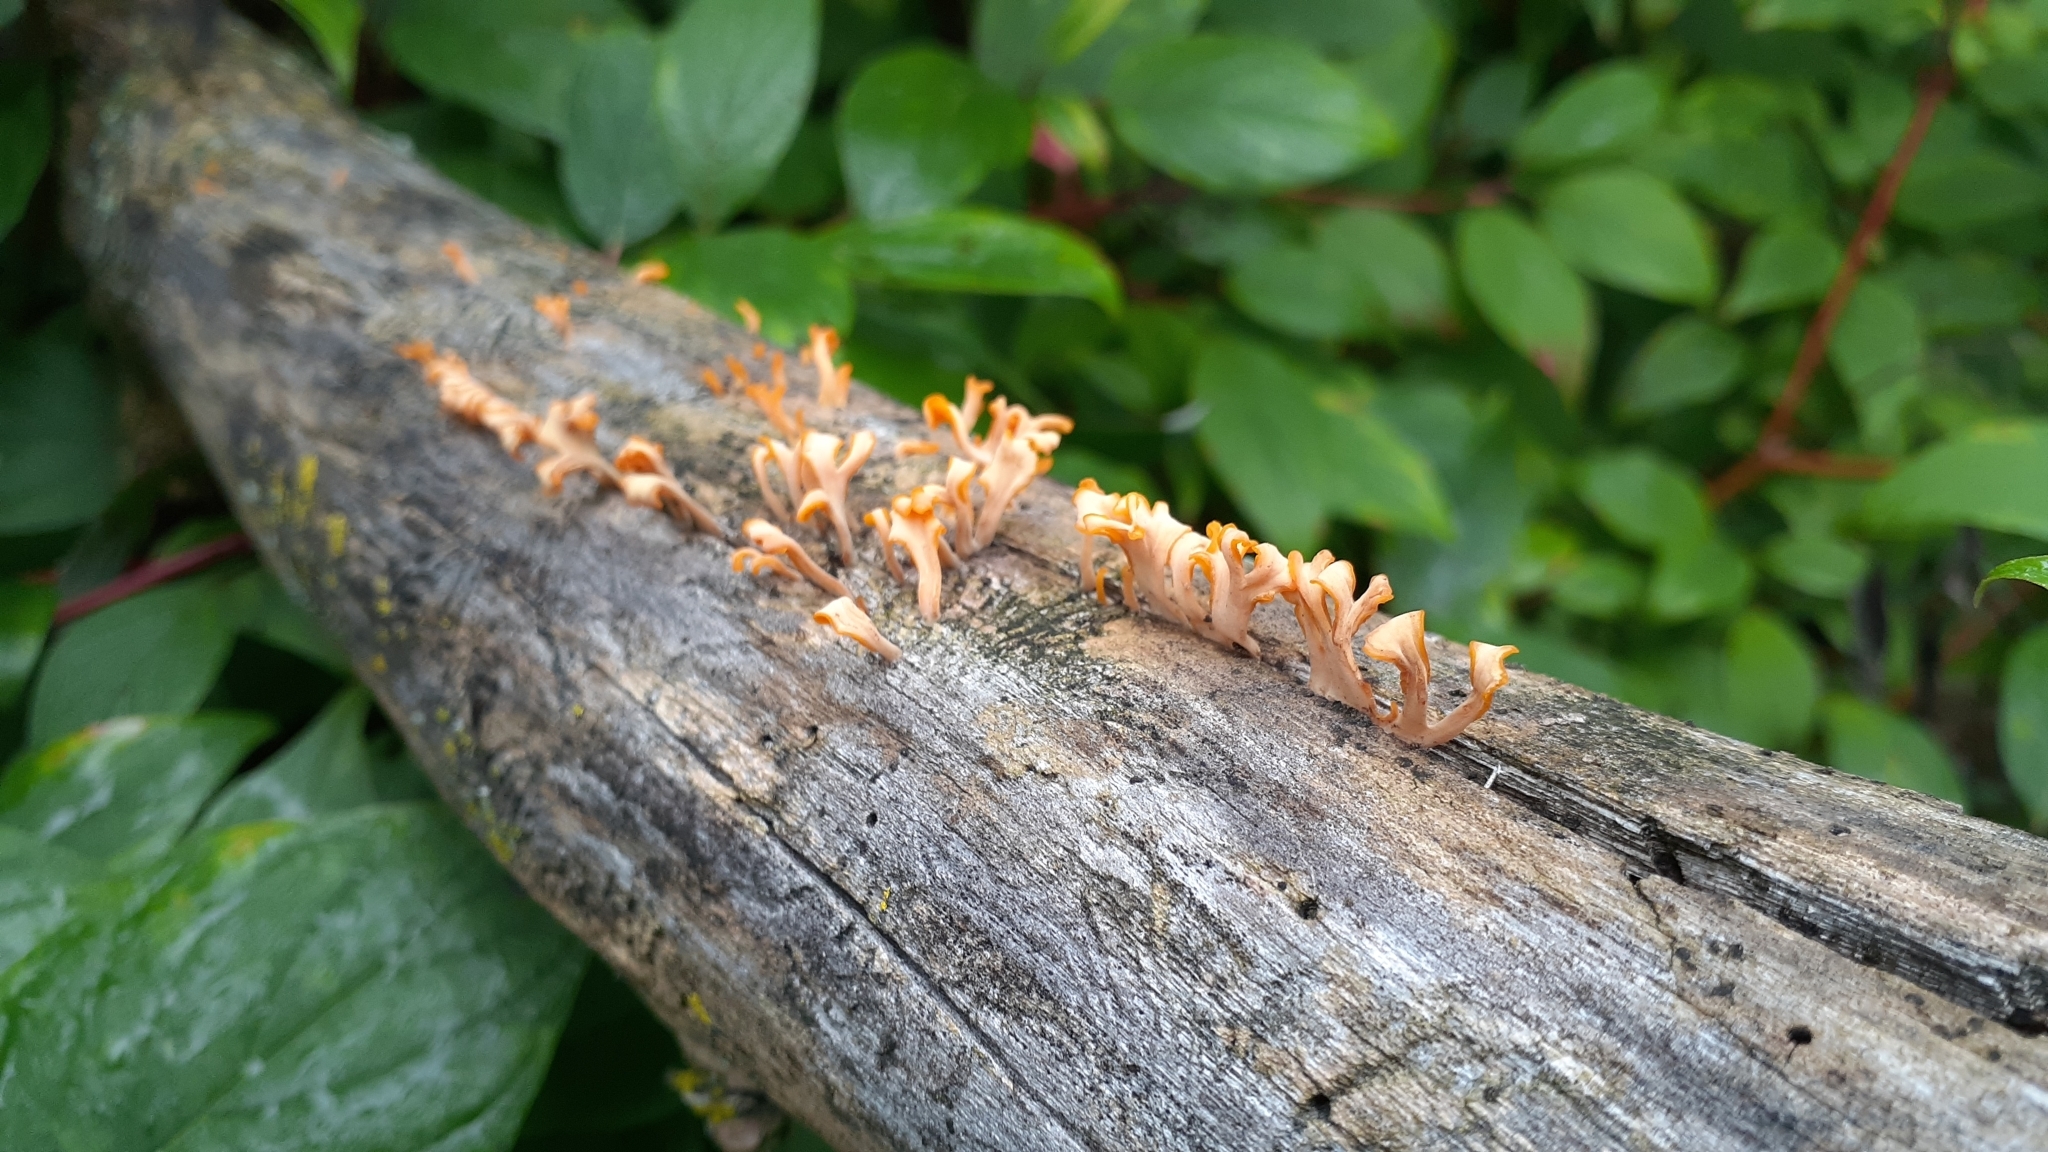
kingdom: Fungi
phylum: Basidiomycota
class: Dacrymycetes
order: Dacrymycetales
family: Dacrymycetaceae
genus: Dacrymyces
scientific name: Dacrymyces spathularius
